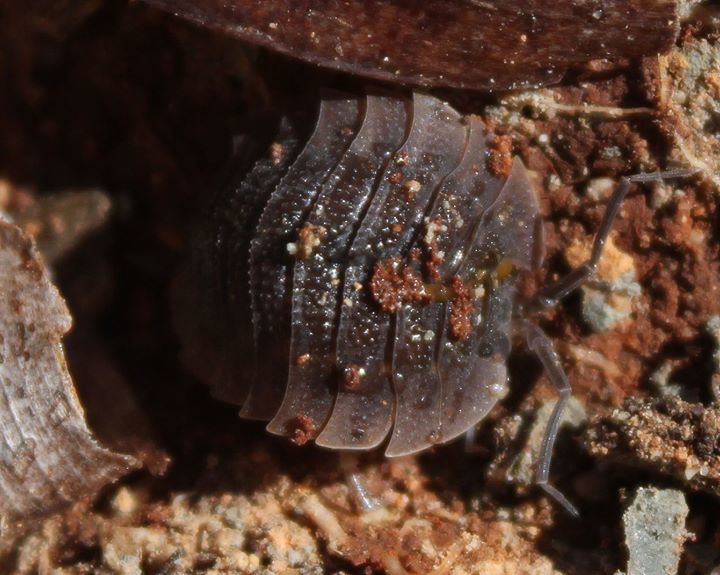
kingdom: Animalia
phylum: Arthropoda
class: Malacostraca
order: Isopoda
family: Trachelipodidae
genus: Trachelipus
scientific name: Trachelipus camerani
